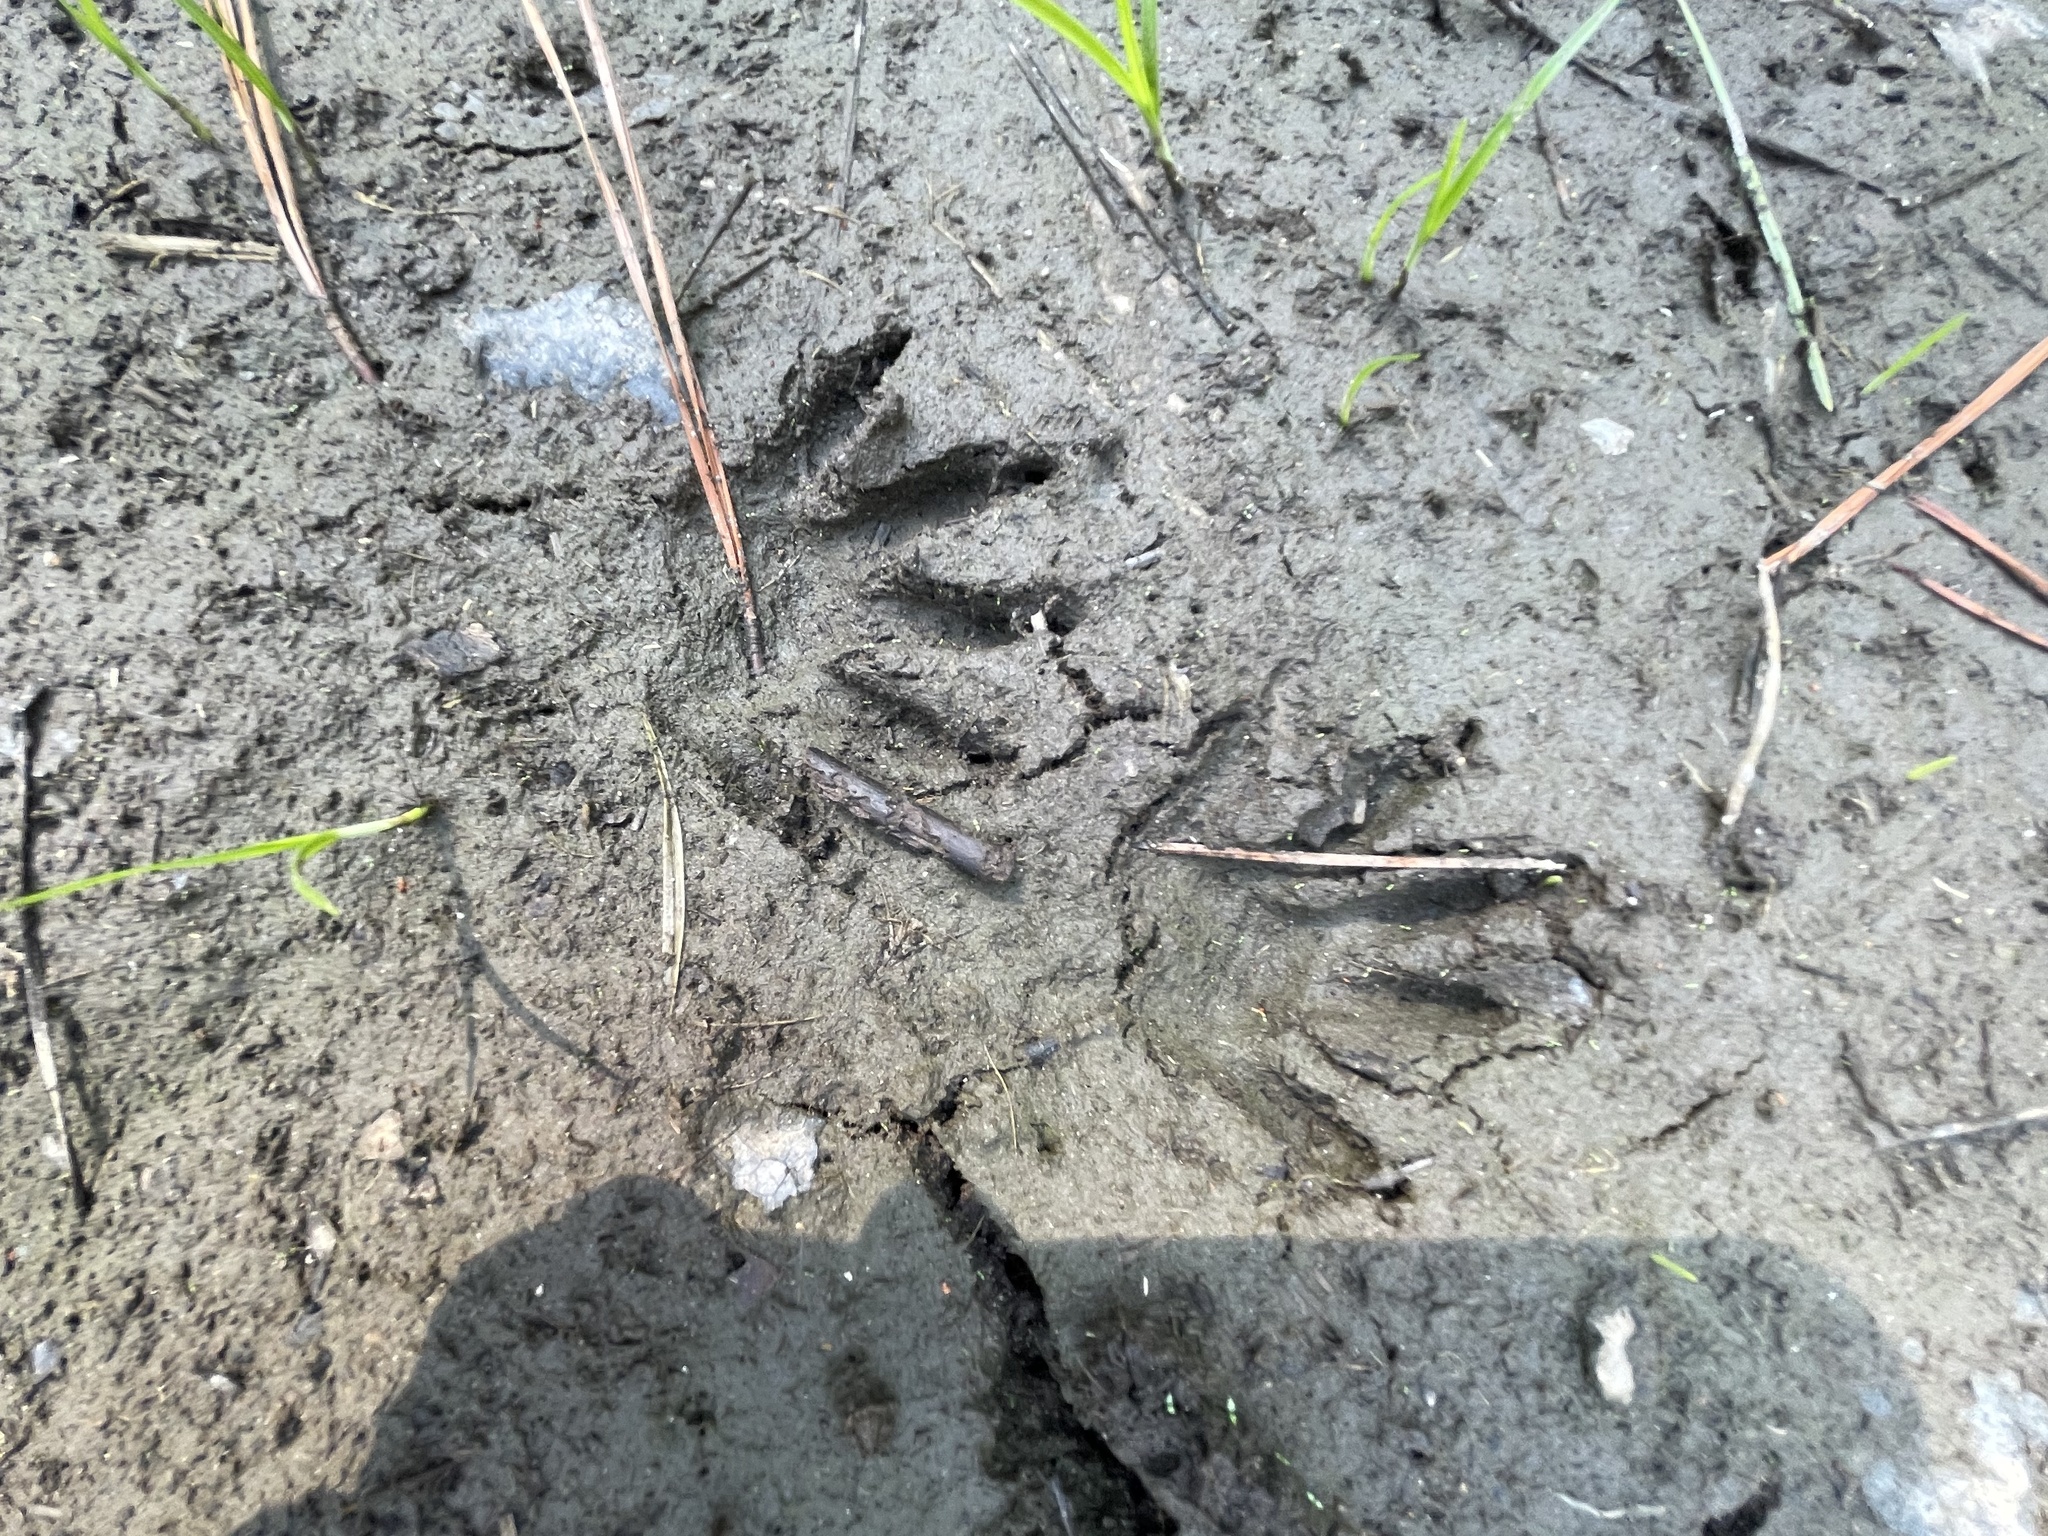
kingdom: Animalia
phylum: Chordata
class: Mammalia
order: Carnivora
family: Procyonidae
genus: Procyon
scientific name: Procyon lotor
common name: Raccoon
